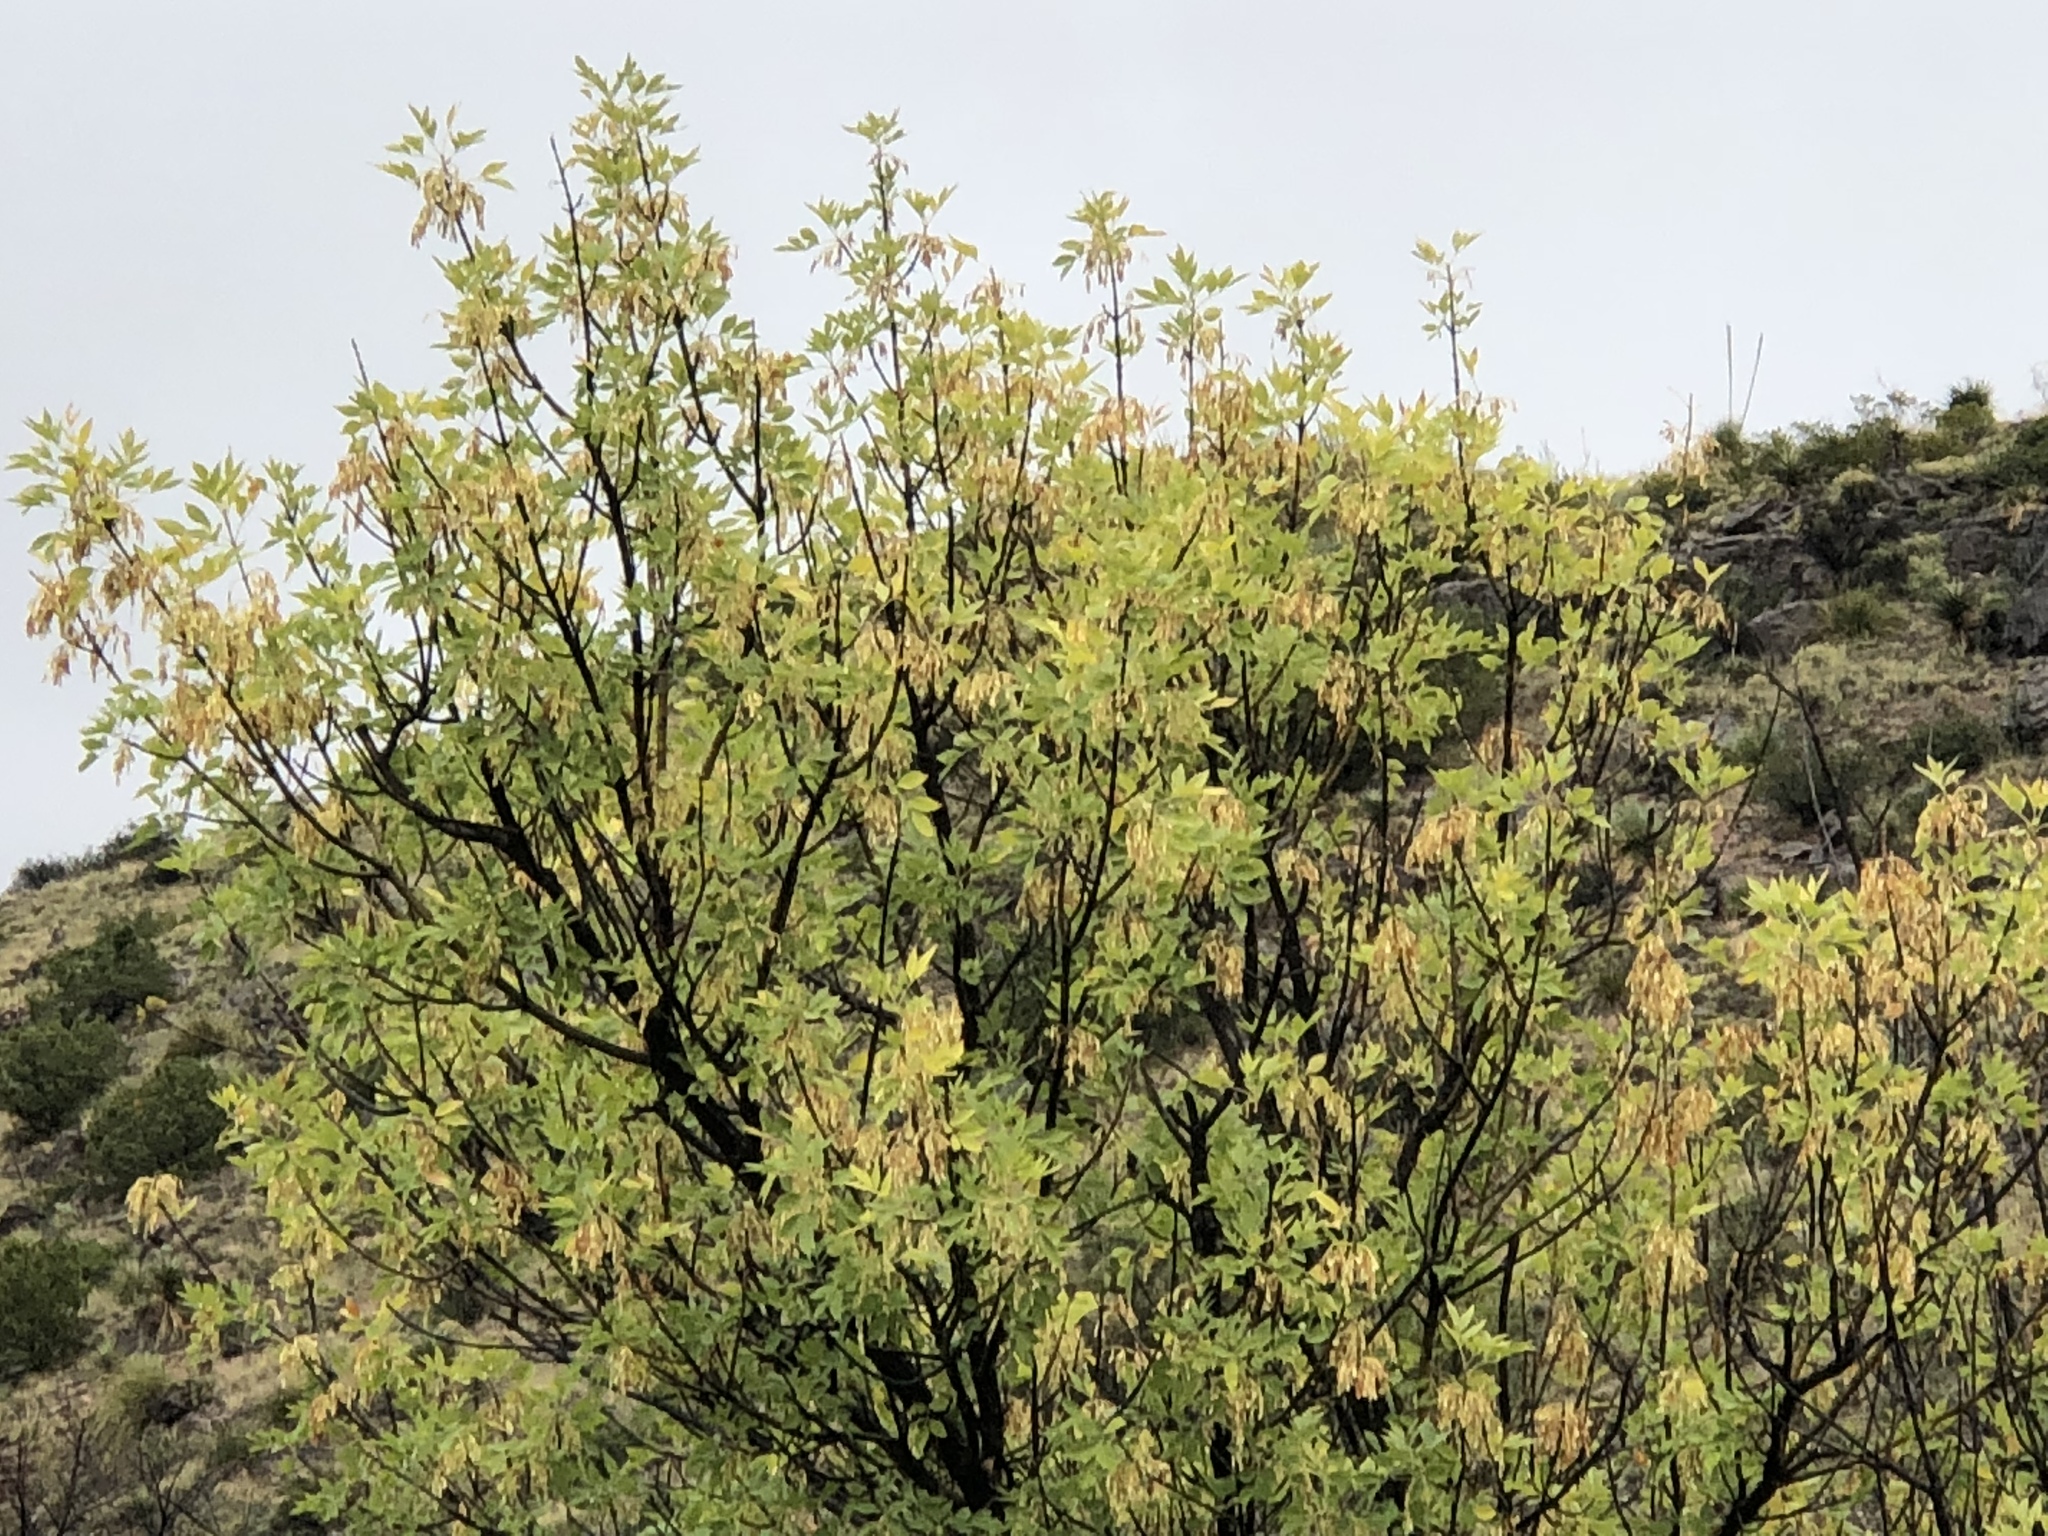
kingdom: Plantae
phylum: Tracheophyta
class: Magnoliopsida
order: Lamiales
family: Oleaceae
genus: Fraxinus
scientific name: Fraxinus velutina
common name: Arizon ash
